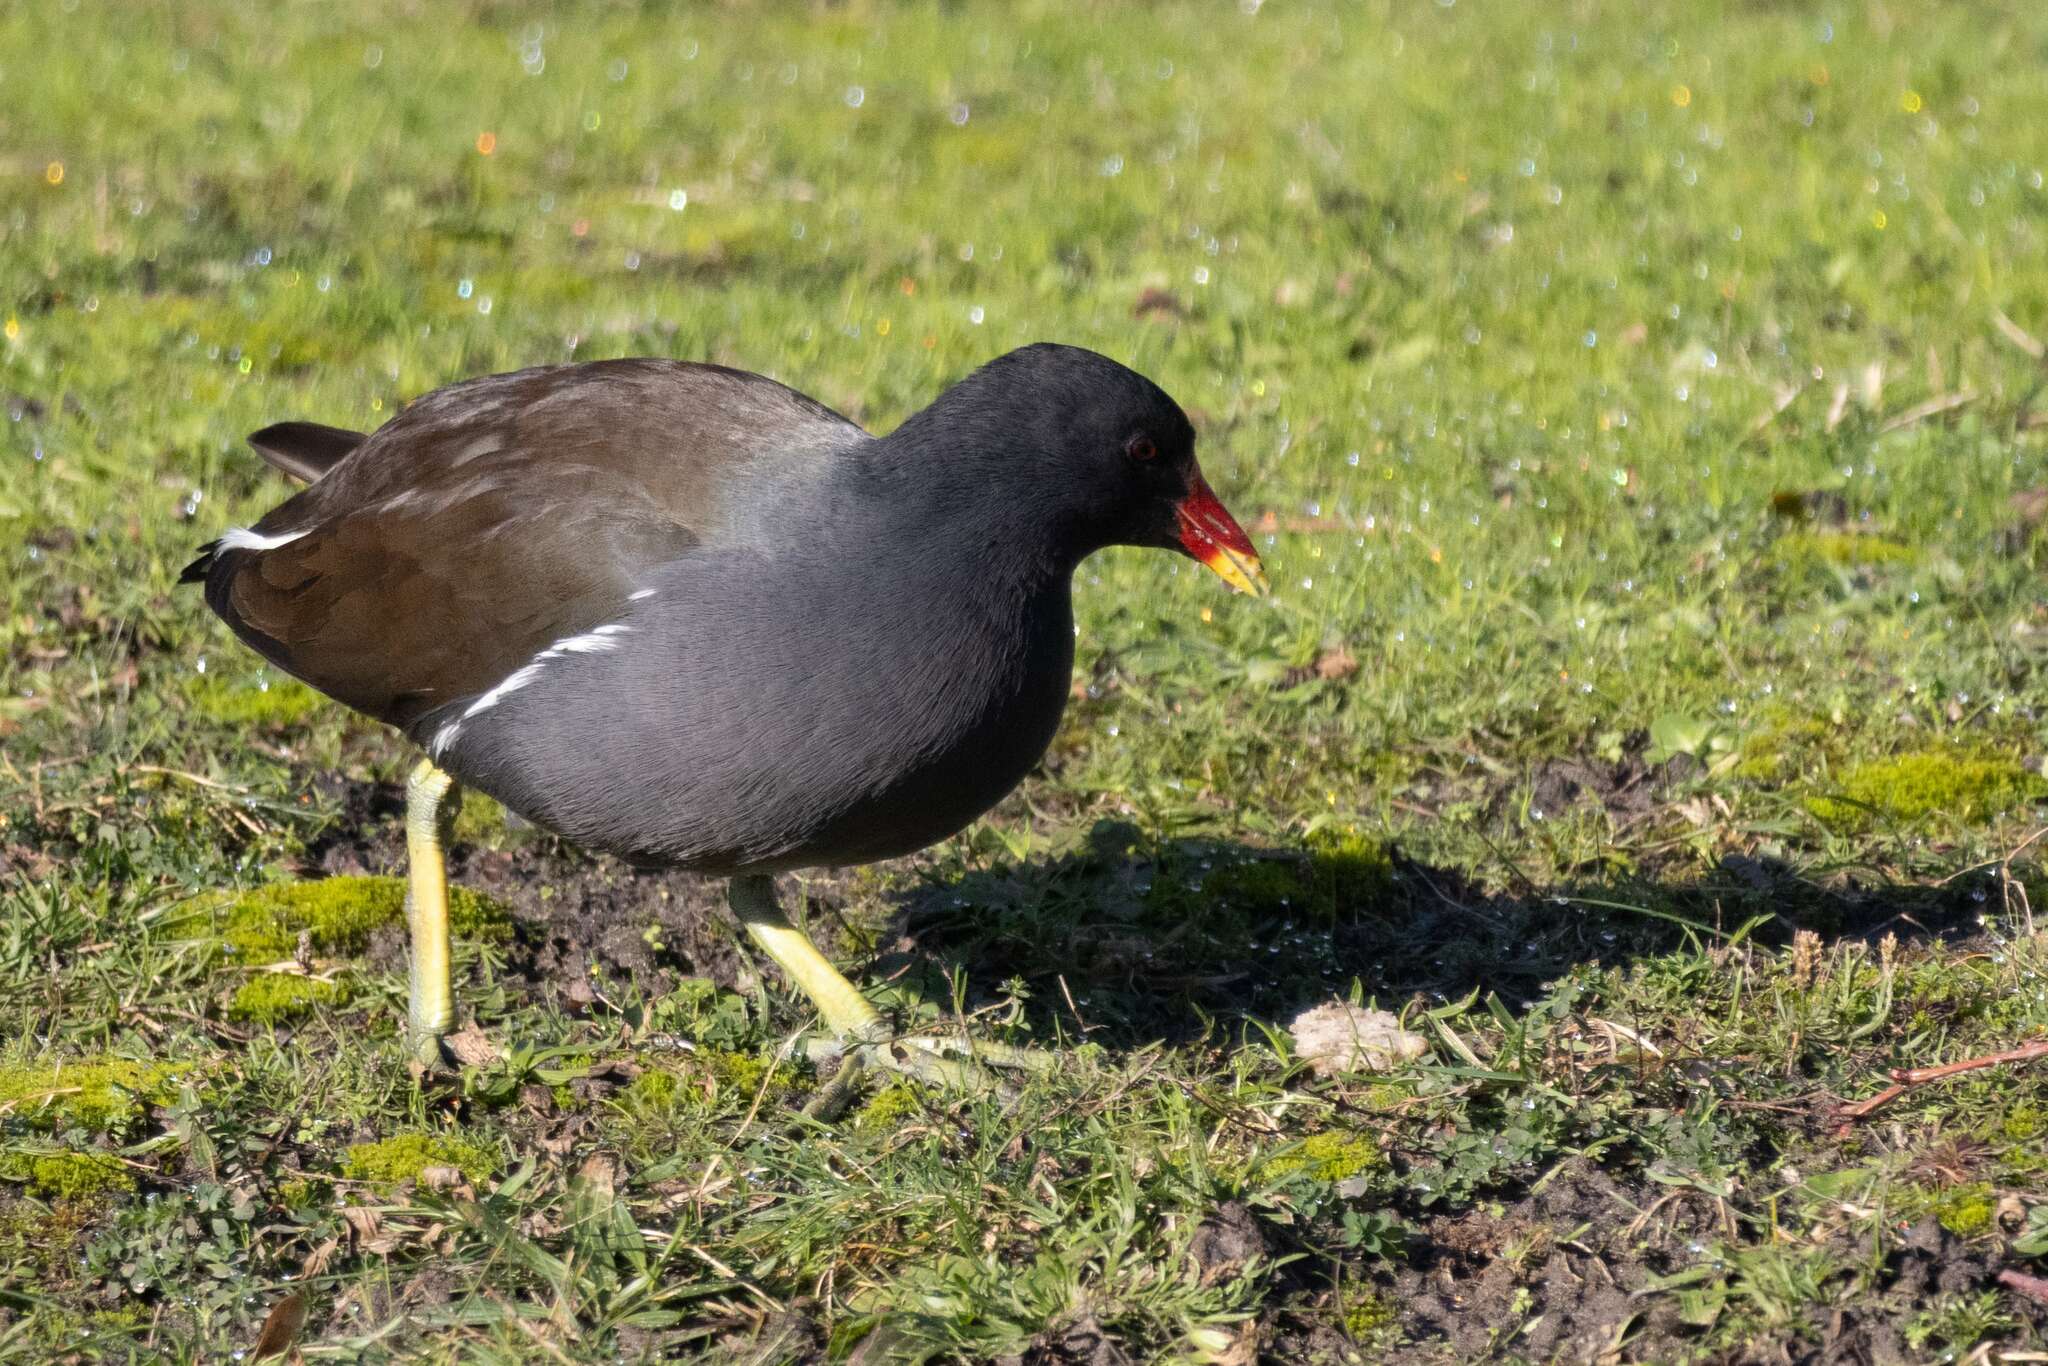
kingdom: Animalia
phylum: Chordata
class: Aves
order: Gruiformes
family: Rallidae
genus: Gallinula
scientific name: Gallinula chloropus
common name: Common moorhen
